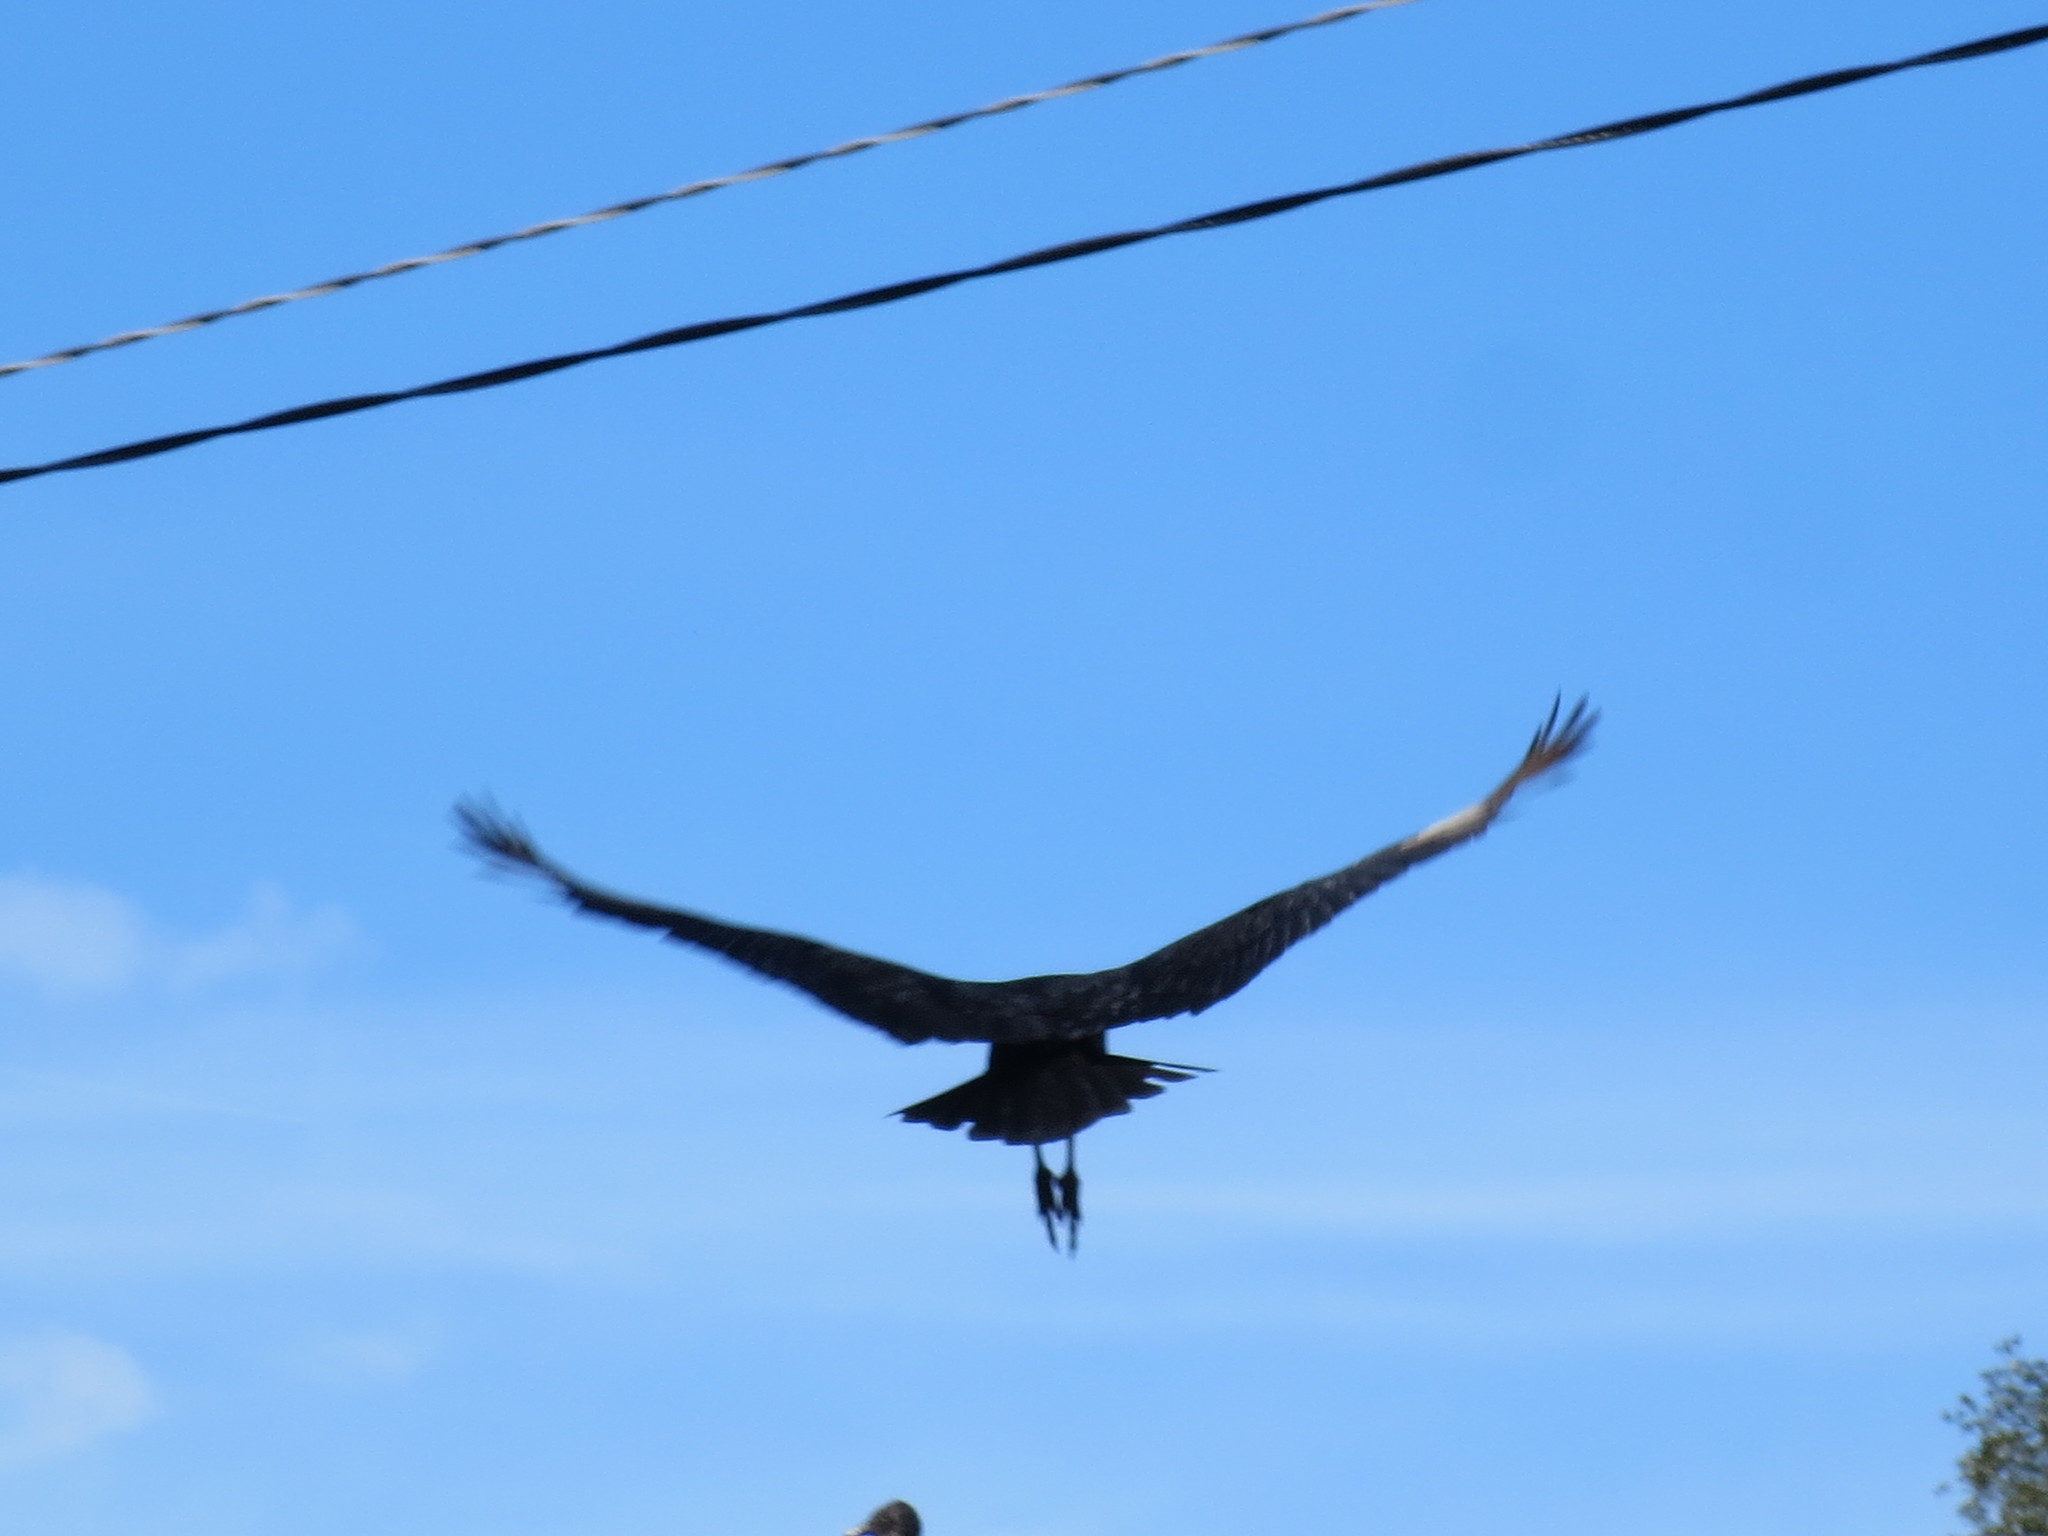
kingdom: Animalia
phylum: Chordata
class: Aves
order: Accipitriformes
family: Cathartidae
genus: Coragyps
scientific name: Coragyps atratus
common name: Black vulture
